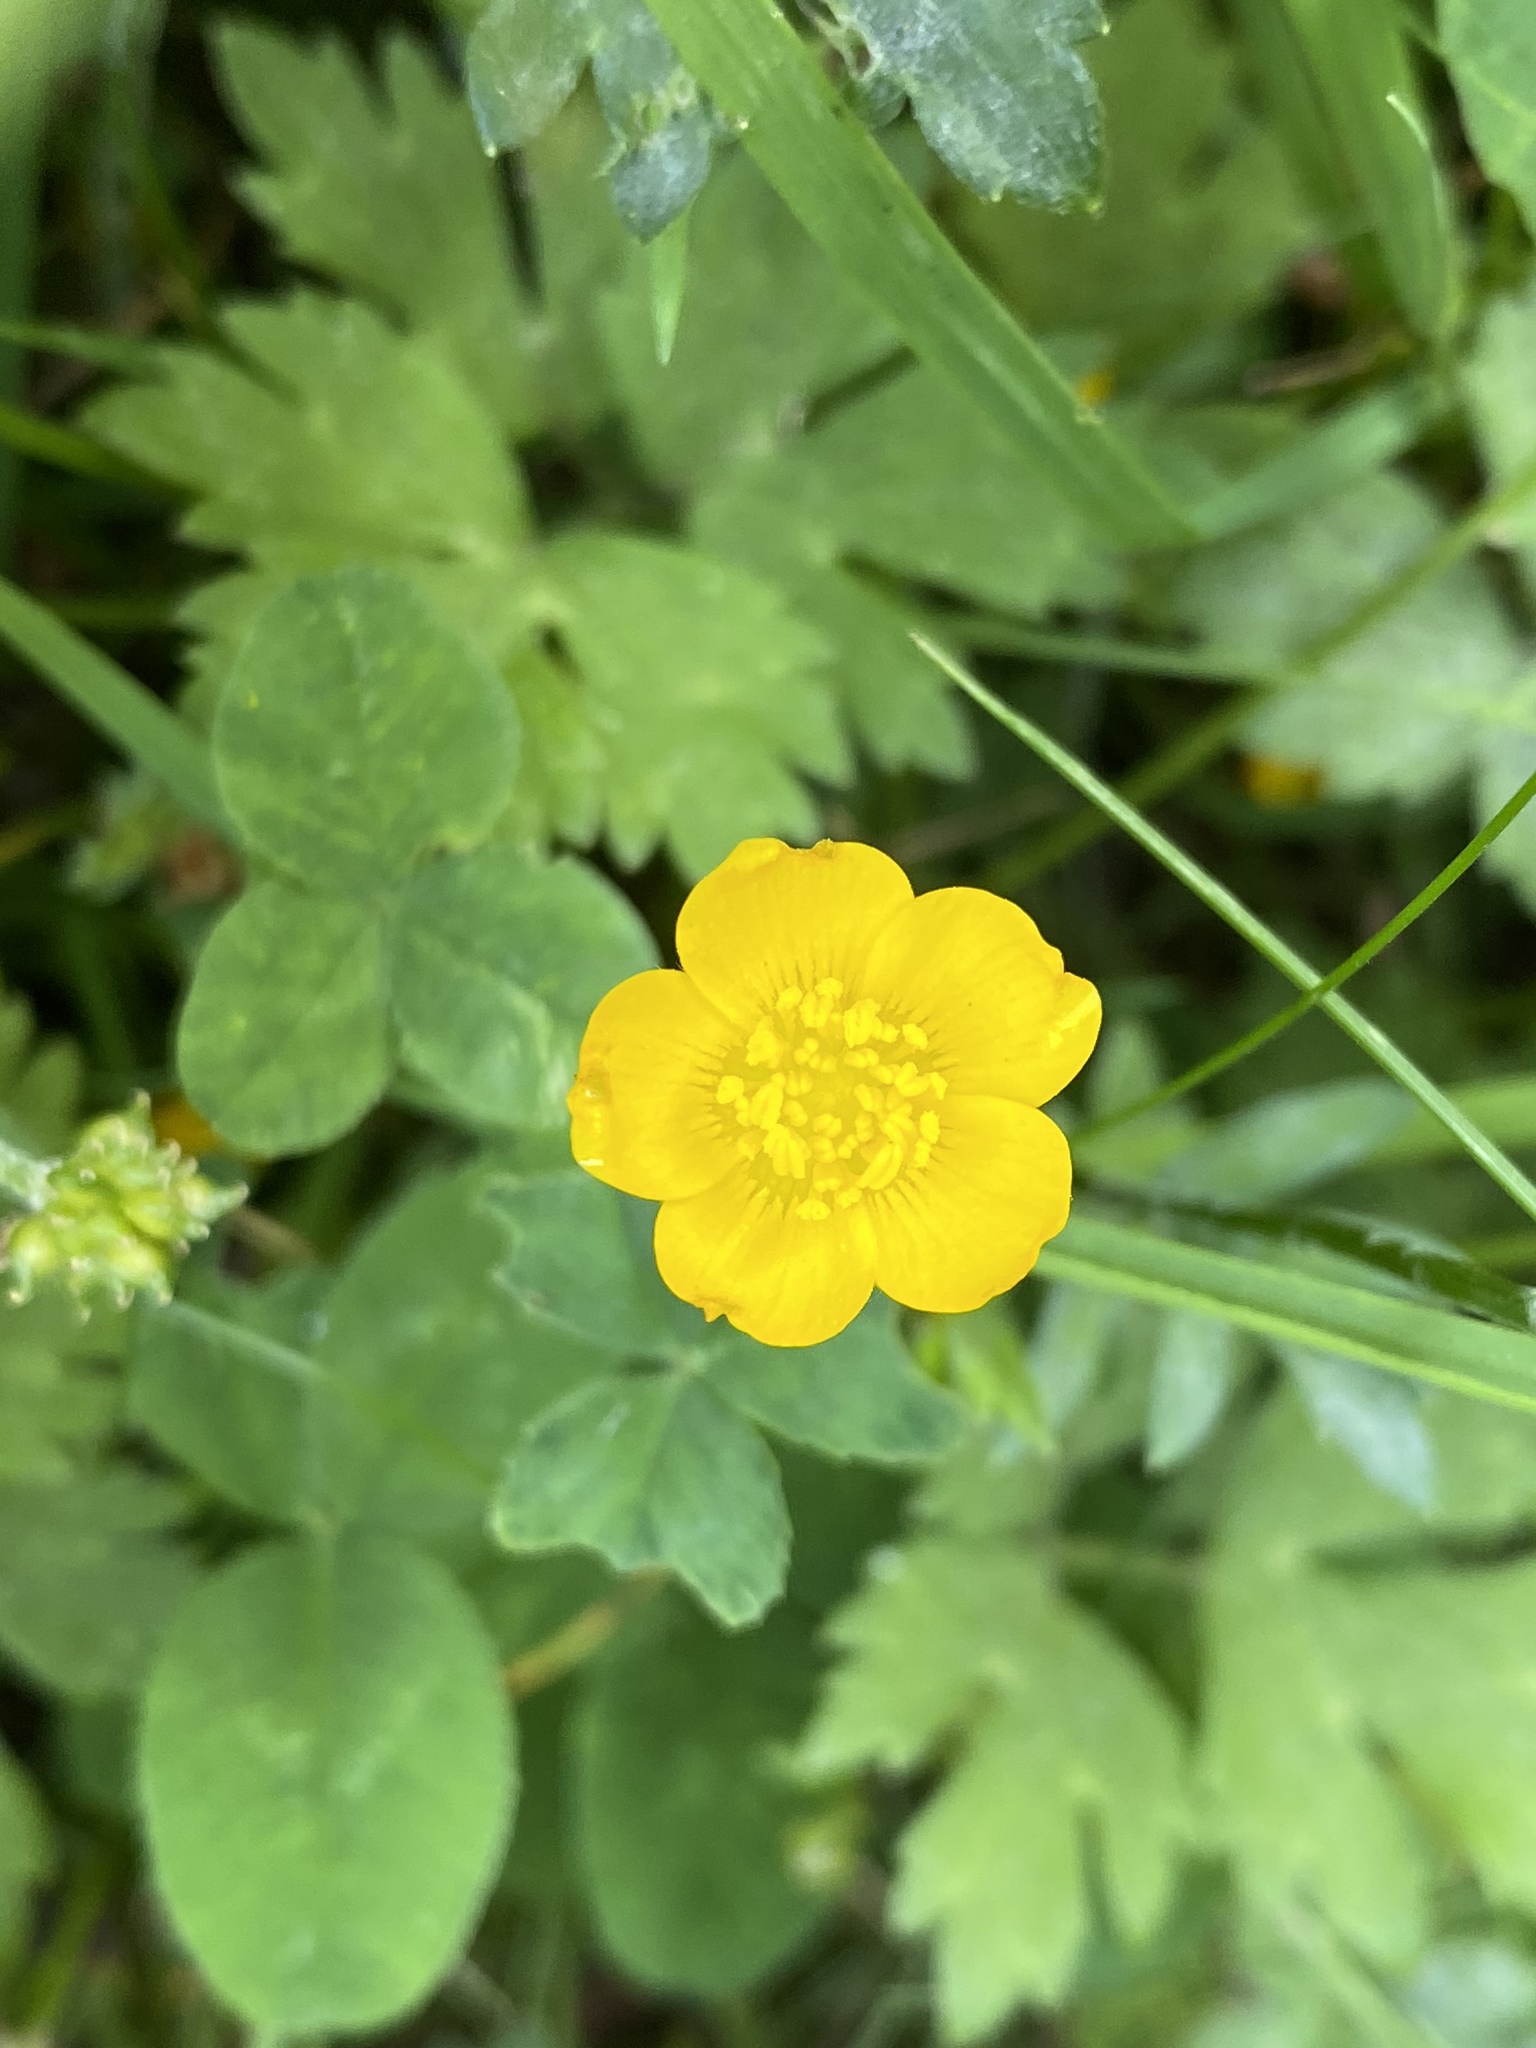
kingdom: Plantae
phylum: Tracheophyta
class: Magnoliopsida
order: Ranunculales
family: Ranunculaceae
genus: Ranunculus
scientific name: Ranunculus repens
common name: Creeping buttercup
